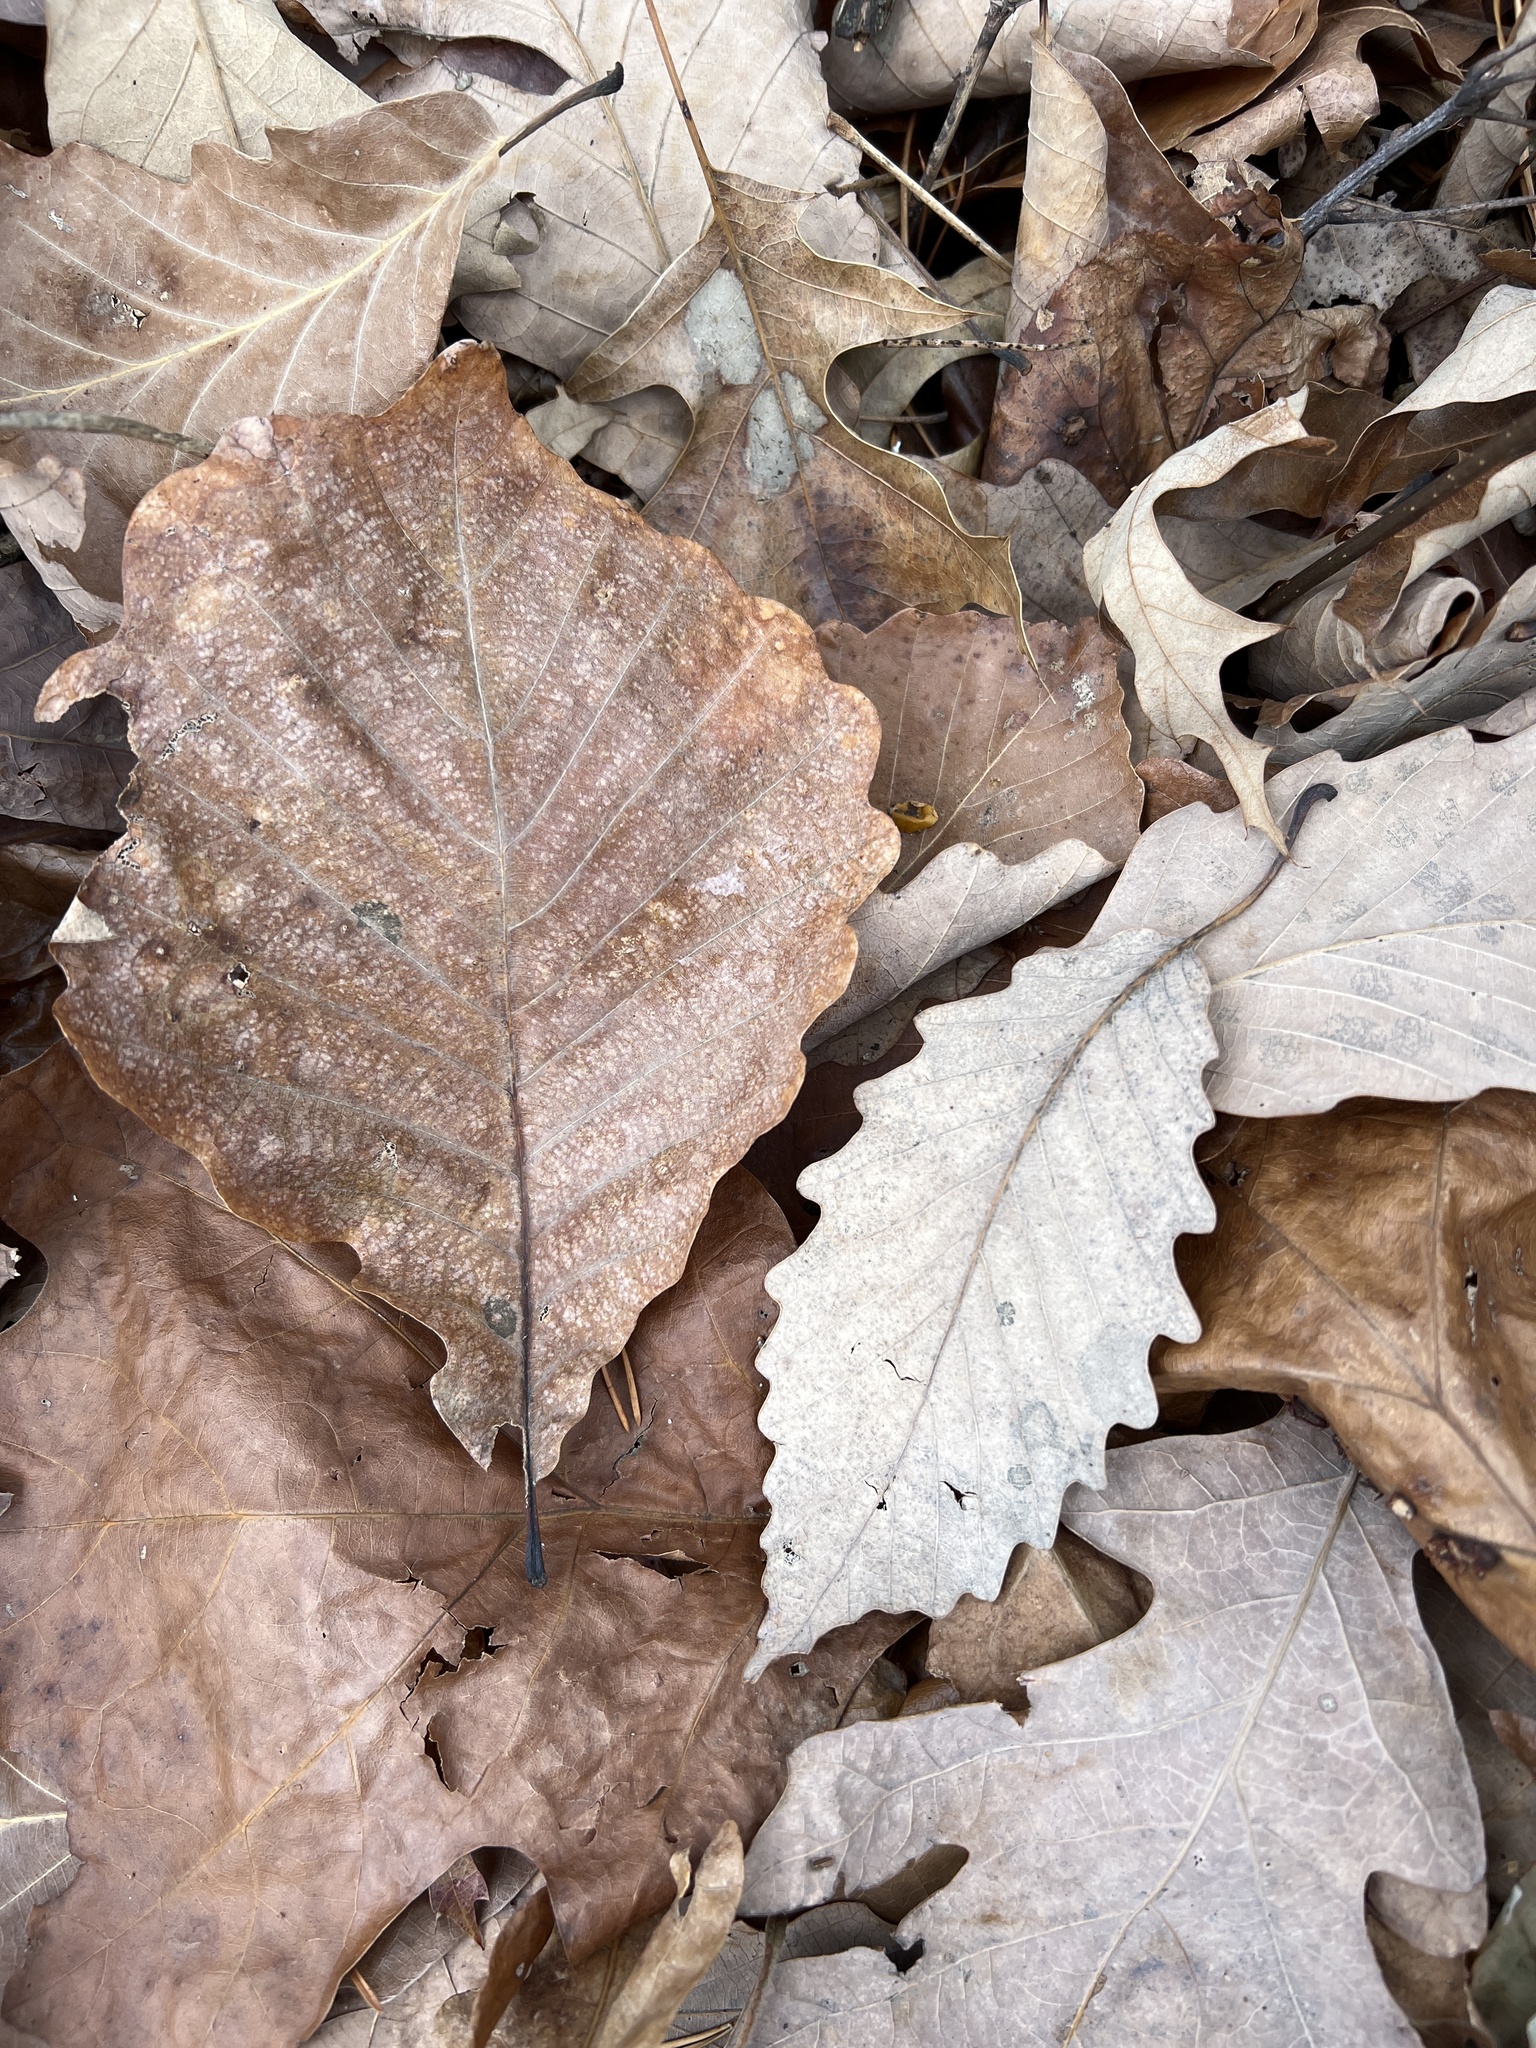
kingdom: Plantae
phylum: Tracheophyta
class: Magnoliopsida
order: Fagales
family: Fagaceae
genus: Quercus
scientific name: Quercus montana
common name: Chestnut oak
